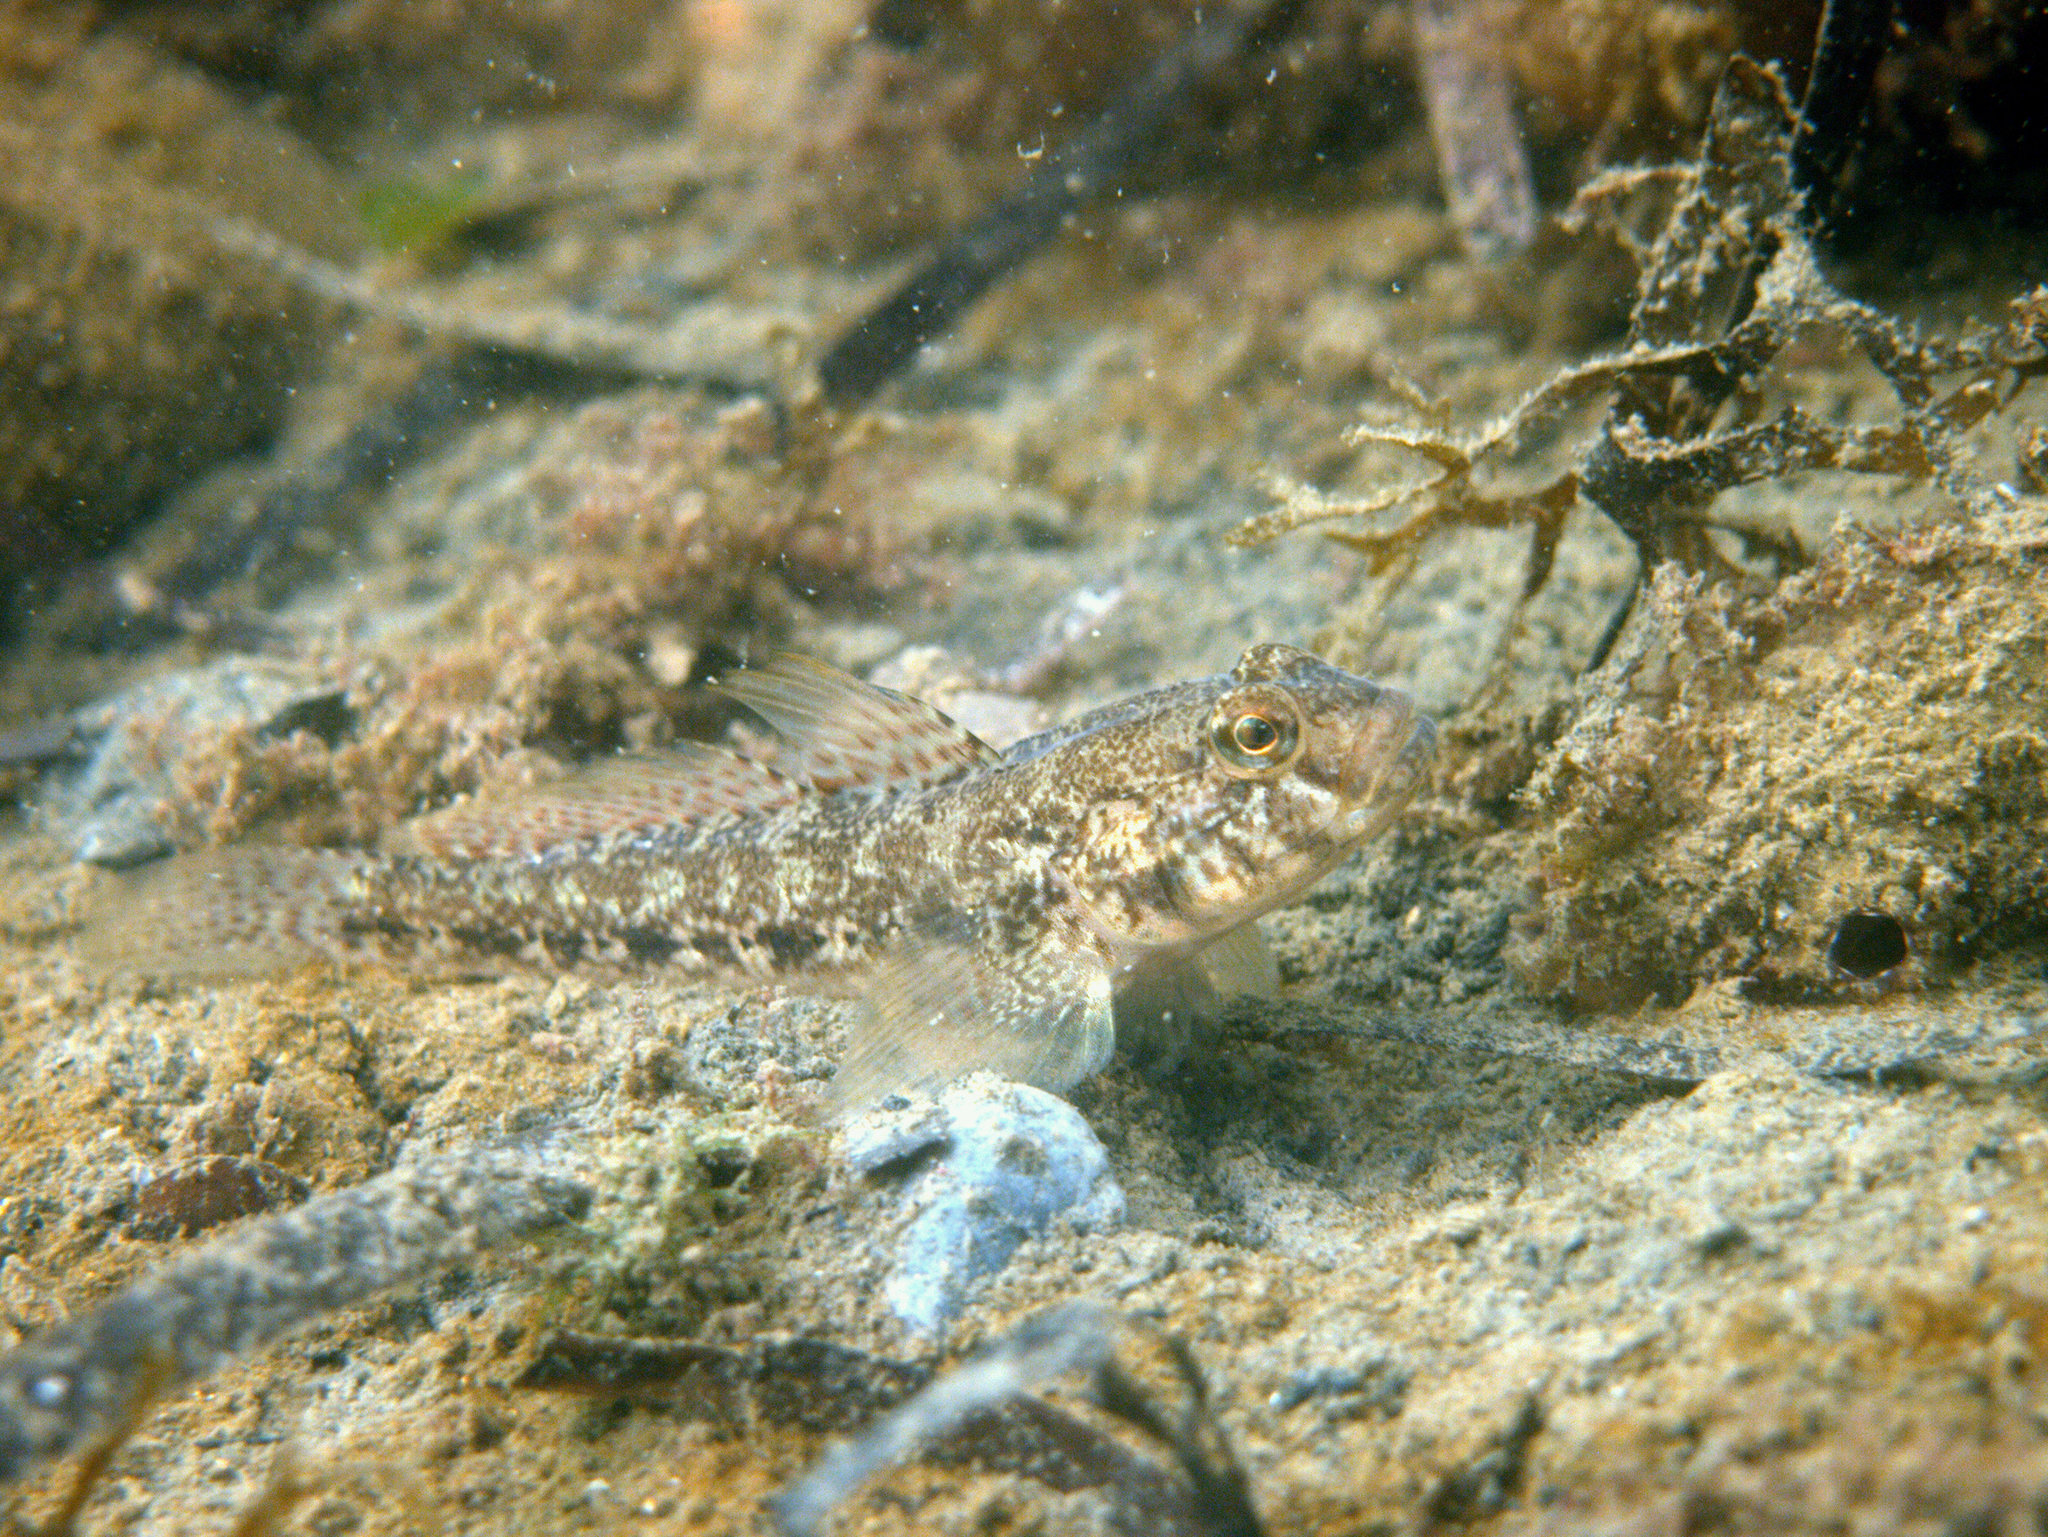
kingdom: Animalia
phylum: Chordata
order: Perciformes
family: Gobiidae
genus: Gobius
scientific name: Gobius niger
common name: Black goby
